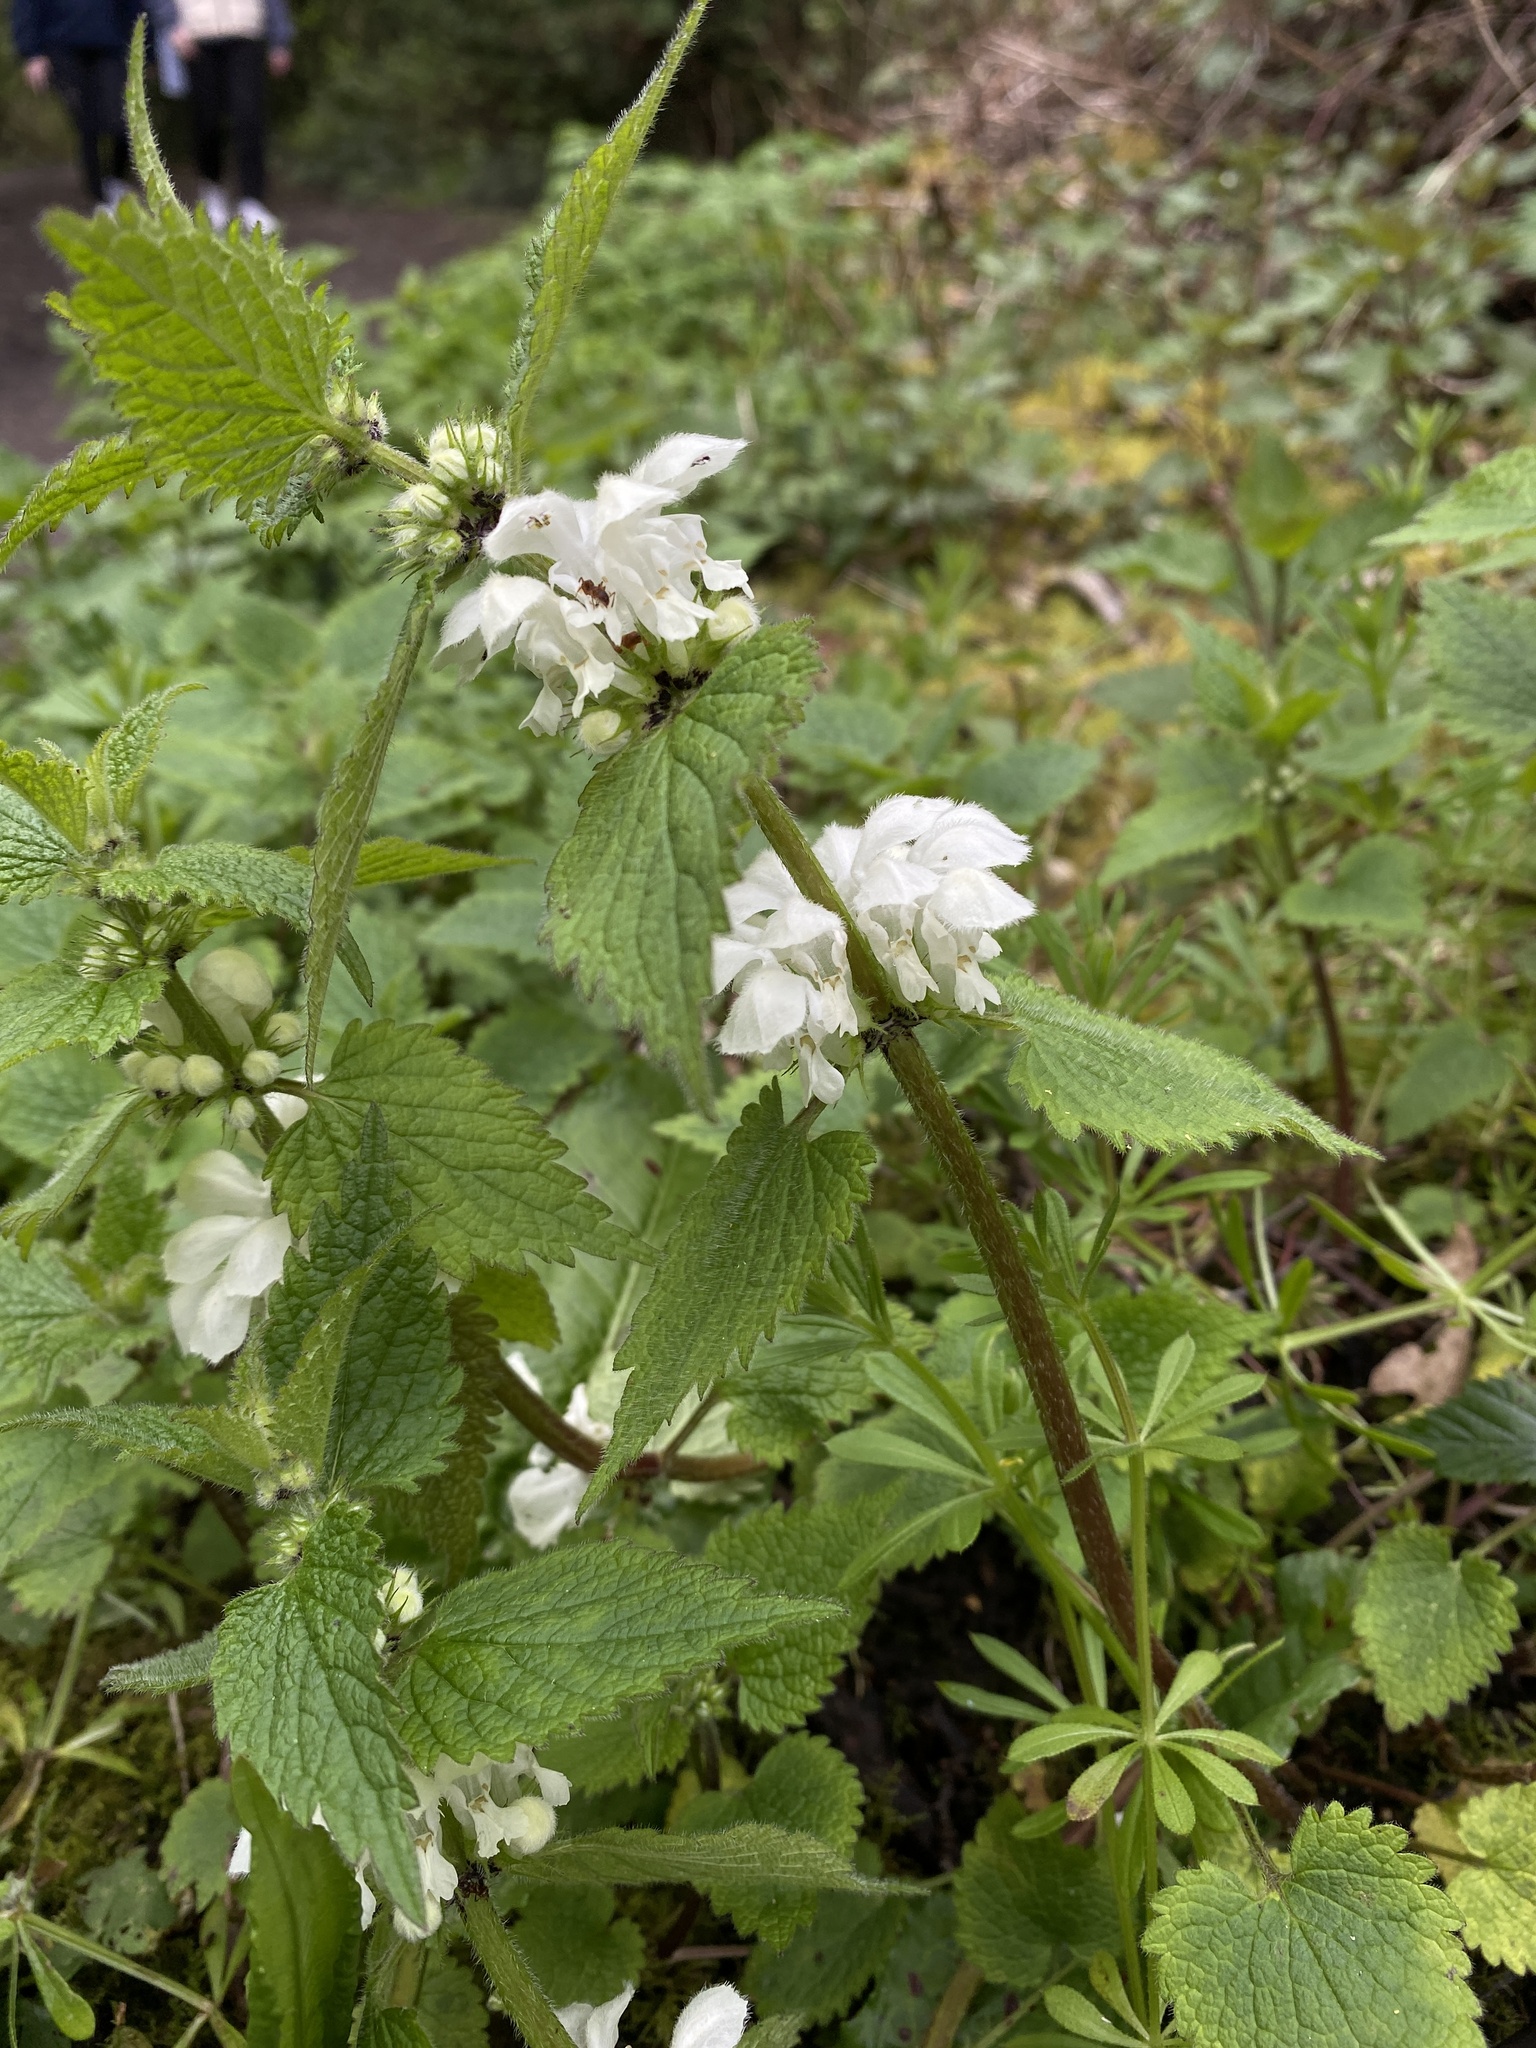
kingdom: Plantae
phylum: Tracheophyta
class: Magnoliopsida
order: Lamiales
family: Lamiaceae
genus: Lamium
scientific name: Lamium album
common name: White dead-nettle
